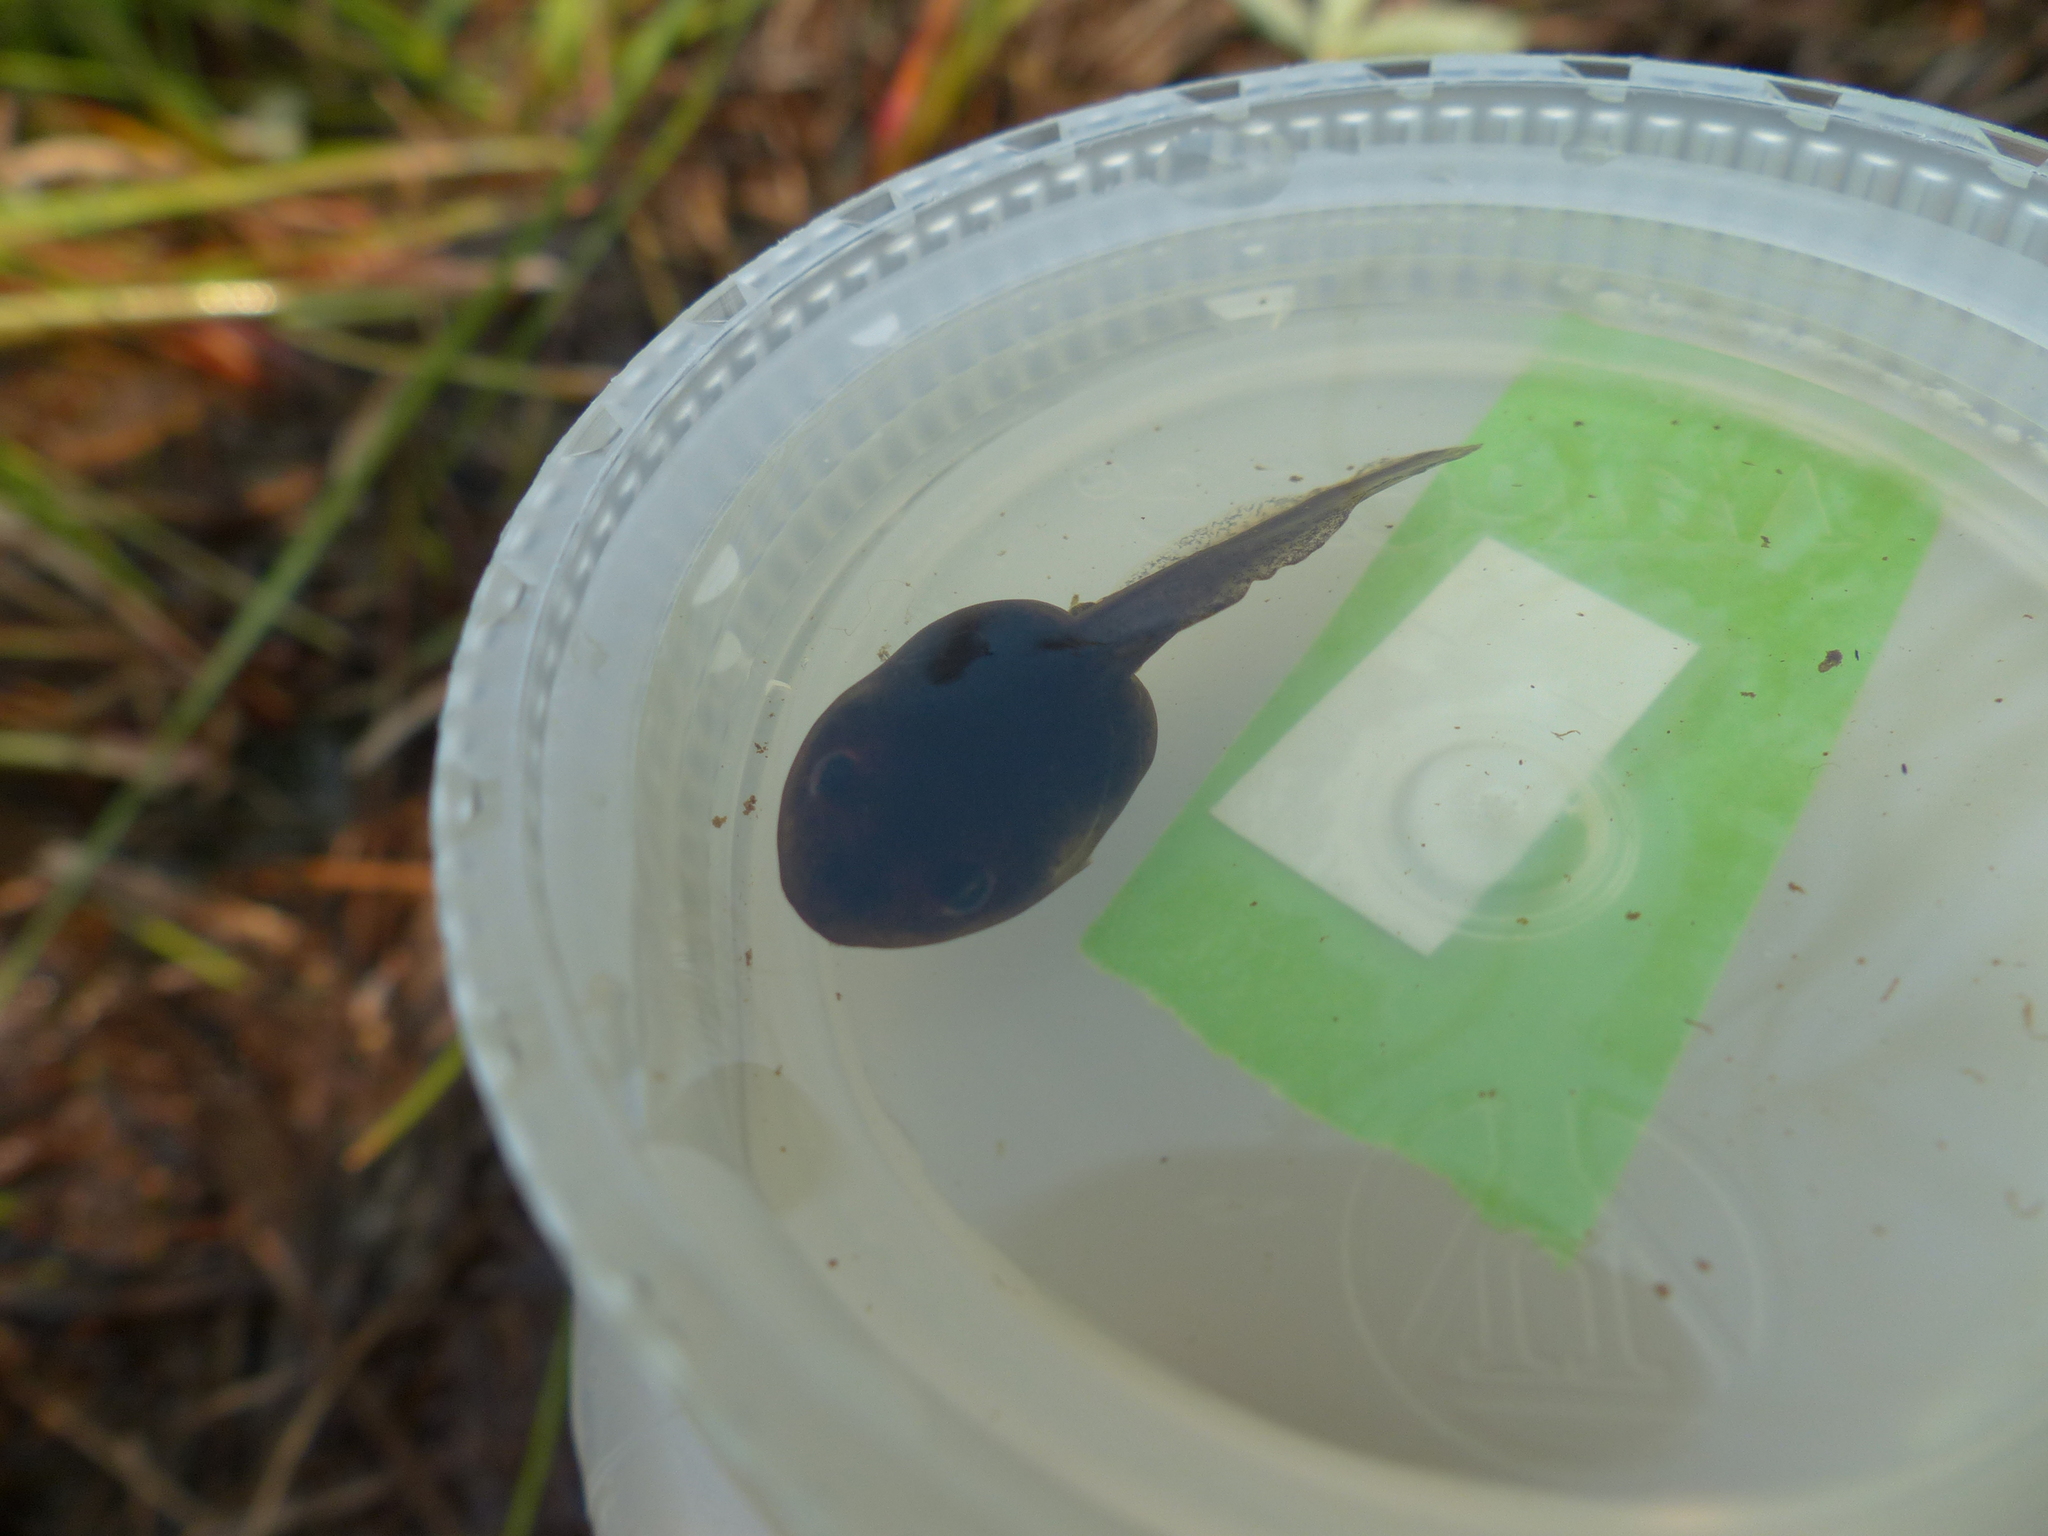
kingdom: Animalia
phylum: Chordata
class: Amphibia
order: Anura
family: Ranidae
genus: Lithobates
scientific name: Lithobates sylvaticus
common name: Wood frog
